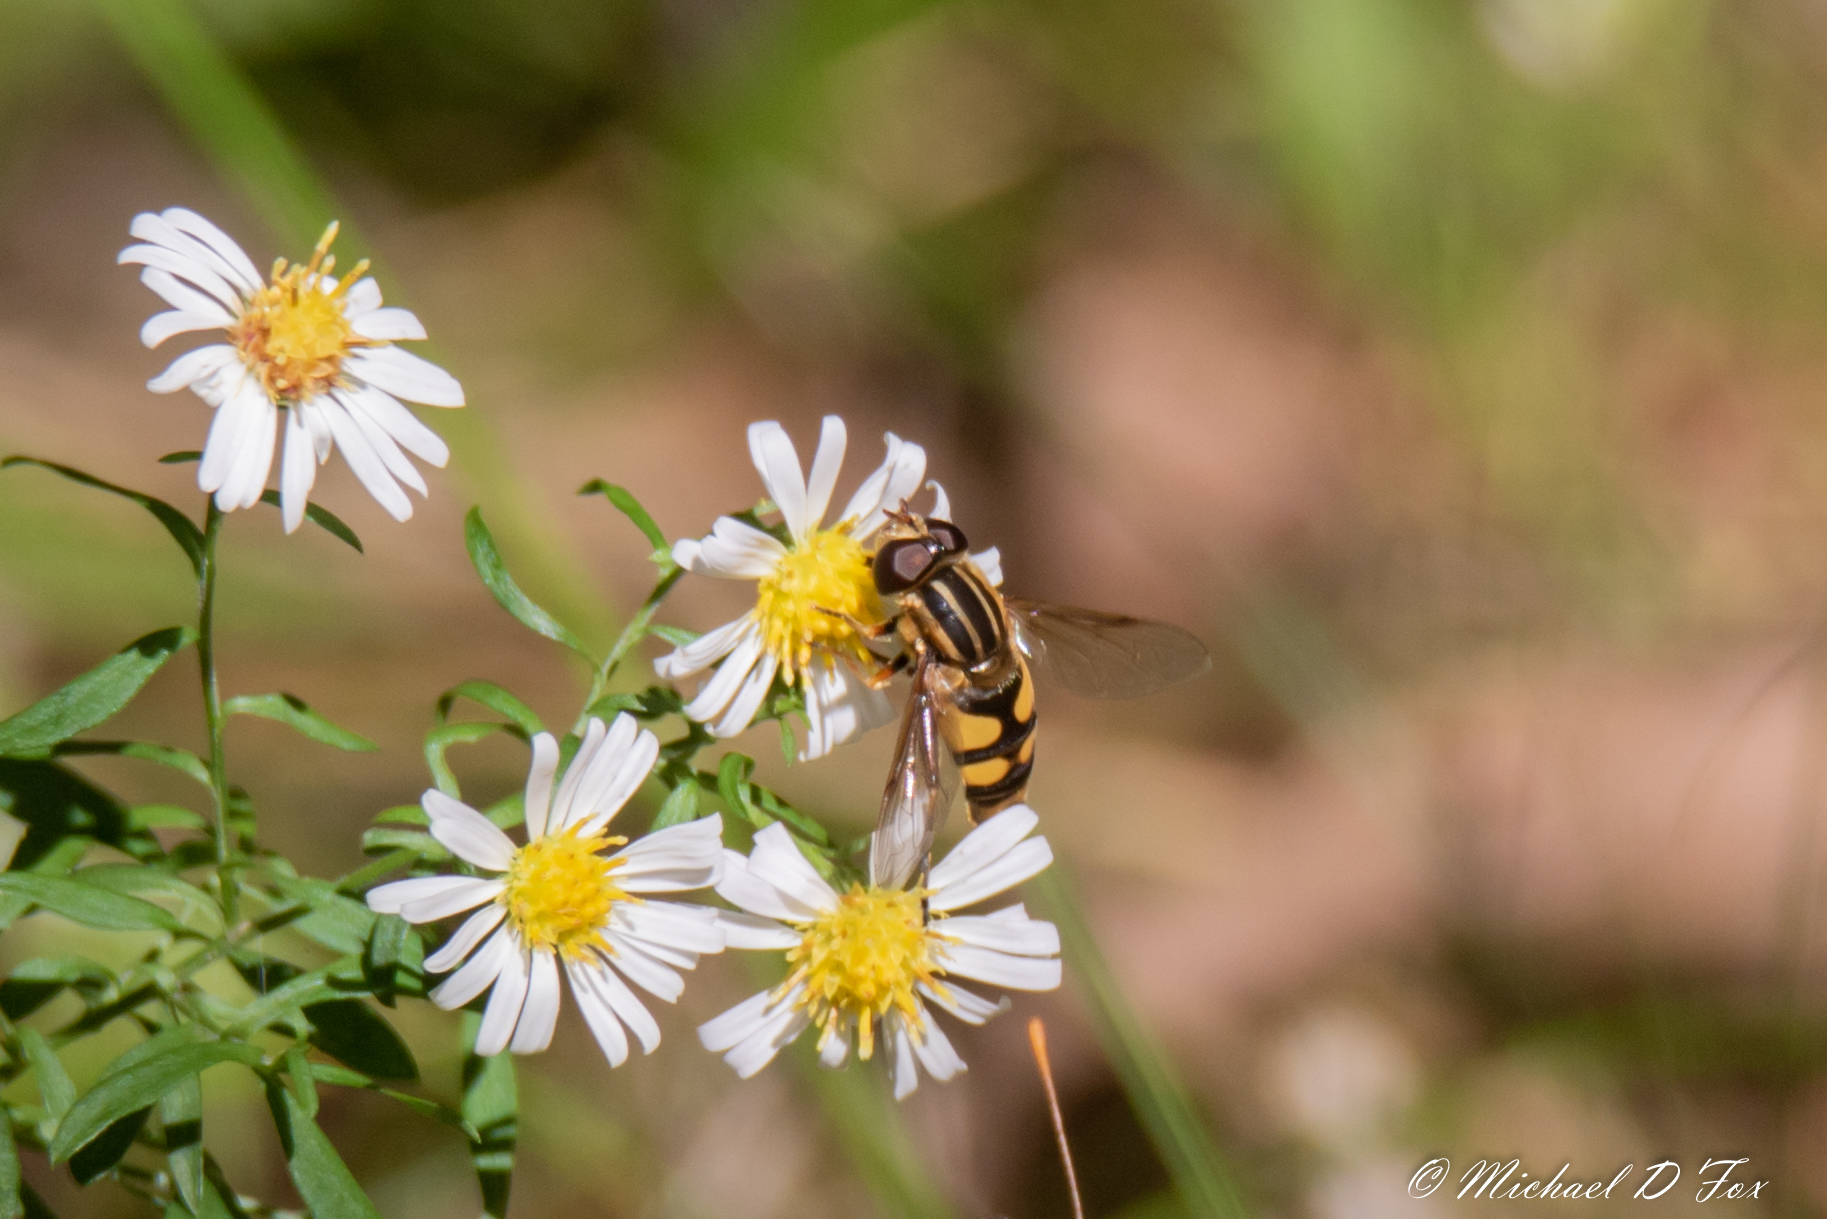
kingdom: Animalia
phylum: Arthropoda
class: Insecta
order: Diptera
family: Syrphidae
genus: Helophilus
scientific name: Helophilus fasciatus
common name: Narrow-headed marsh fly
